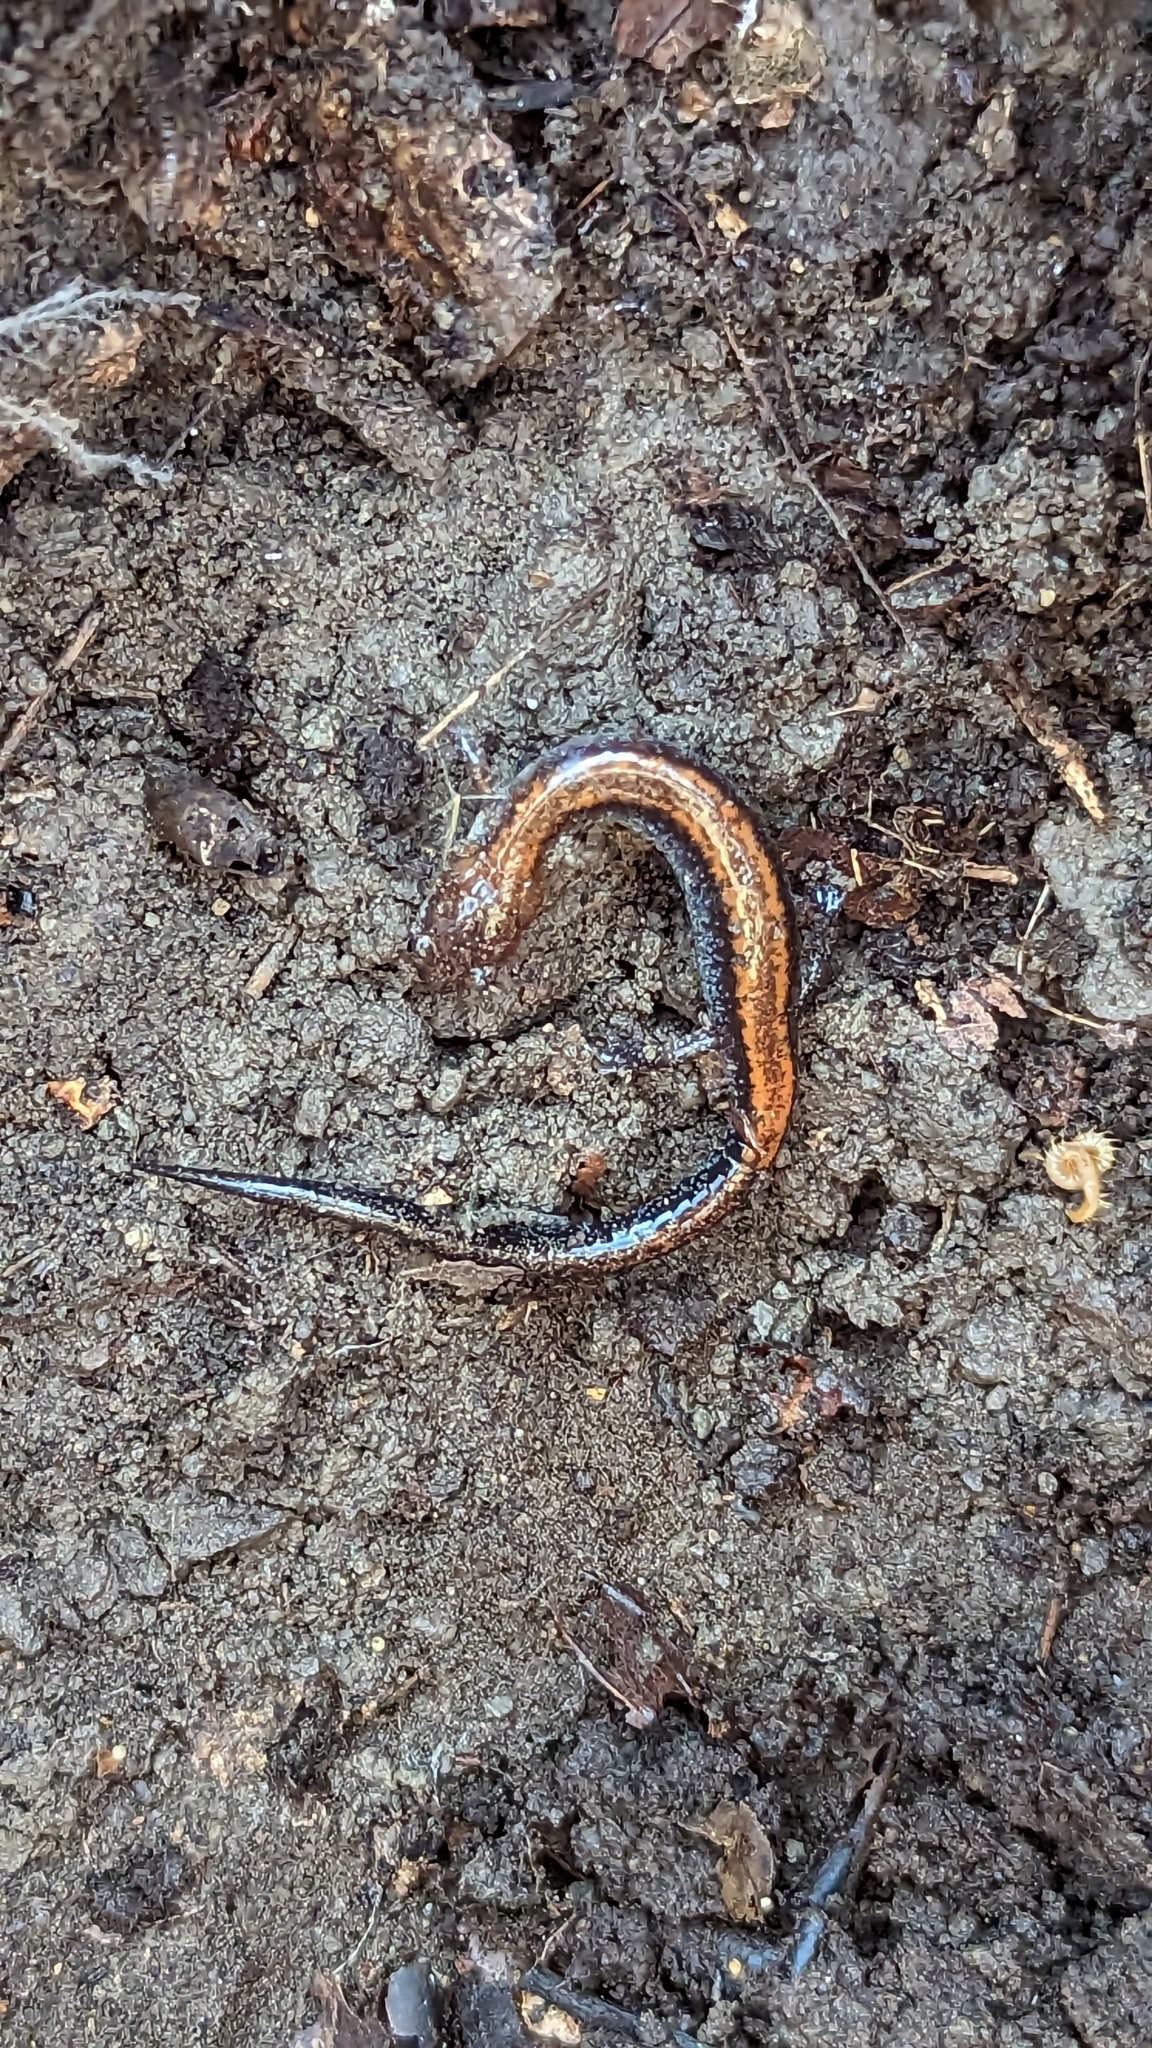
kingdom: Animalia
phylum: Chordata
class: Amphibia
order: Caudata
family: Plethodontidae
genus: Plethodon
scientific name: Plethodon cinereus
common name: Redback salamander
